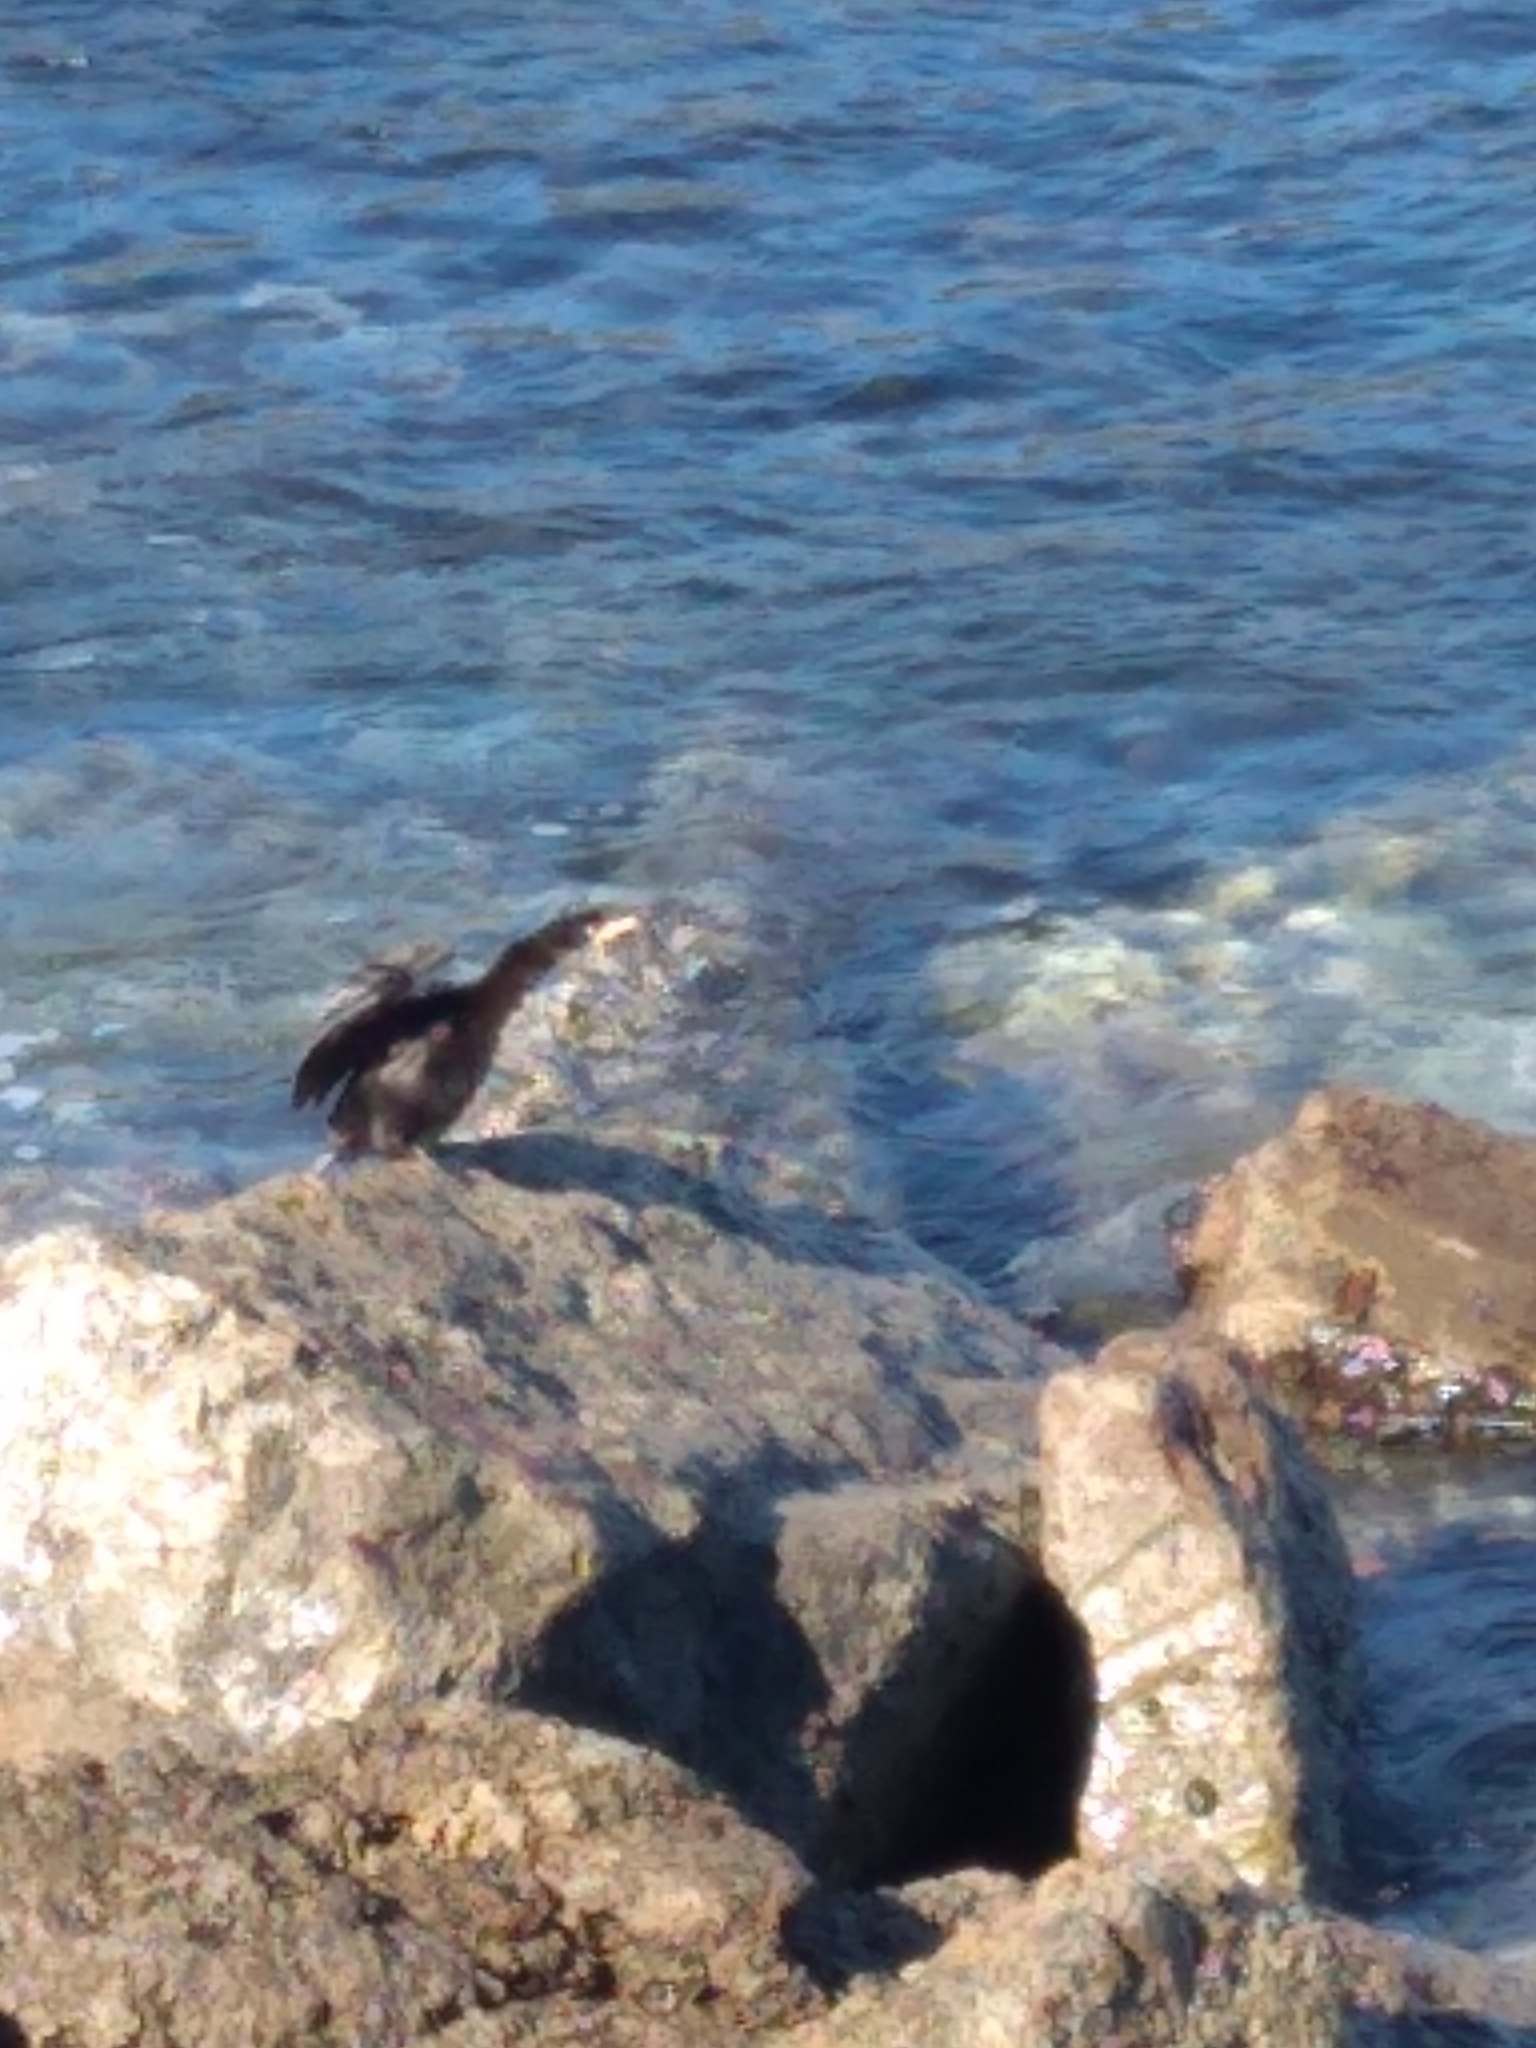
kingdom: Animalia
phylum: Chordata
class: Aves
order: Suliformes
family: Phalacrocoracidae
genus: Microcarbo
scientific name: Microcarbo melanoleucos
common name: Little pied cormorant
